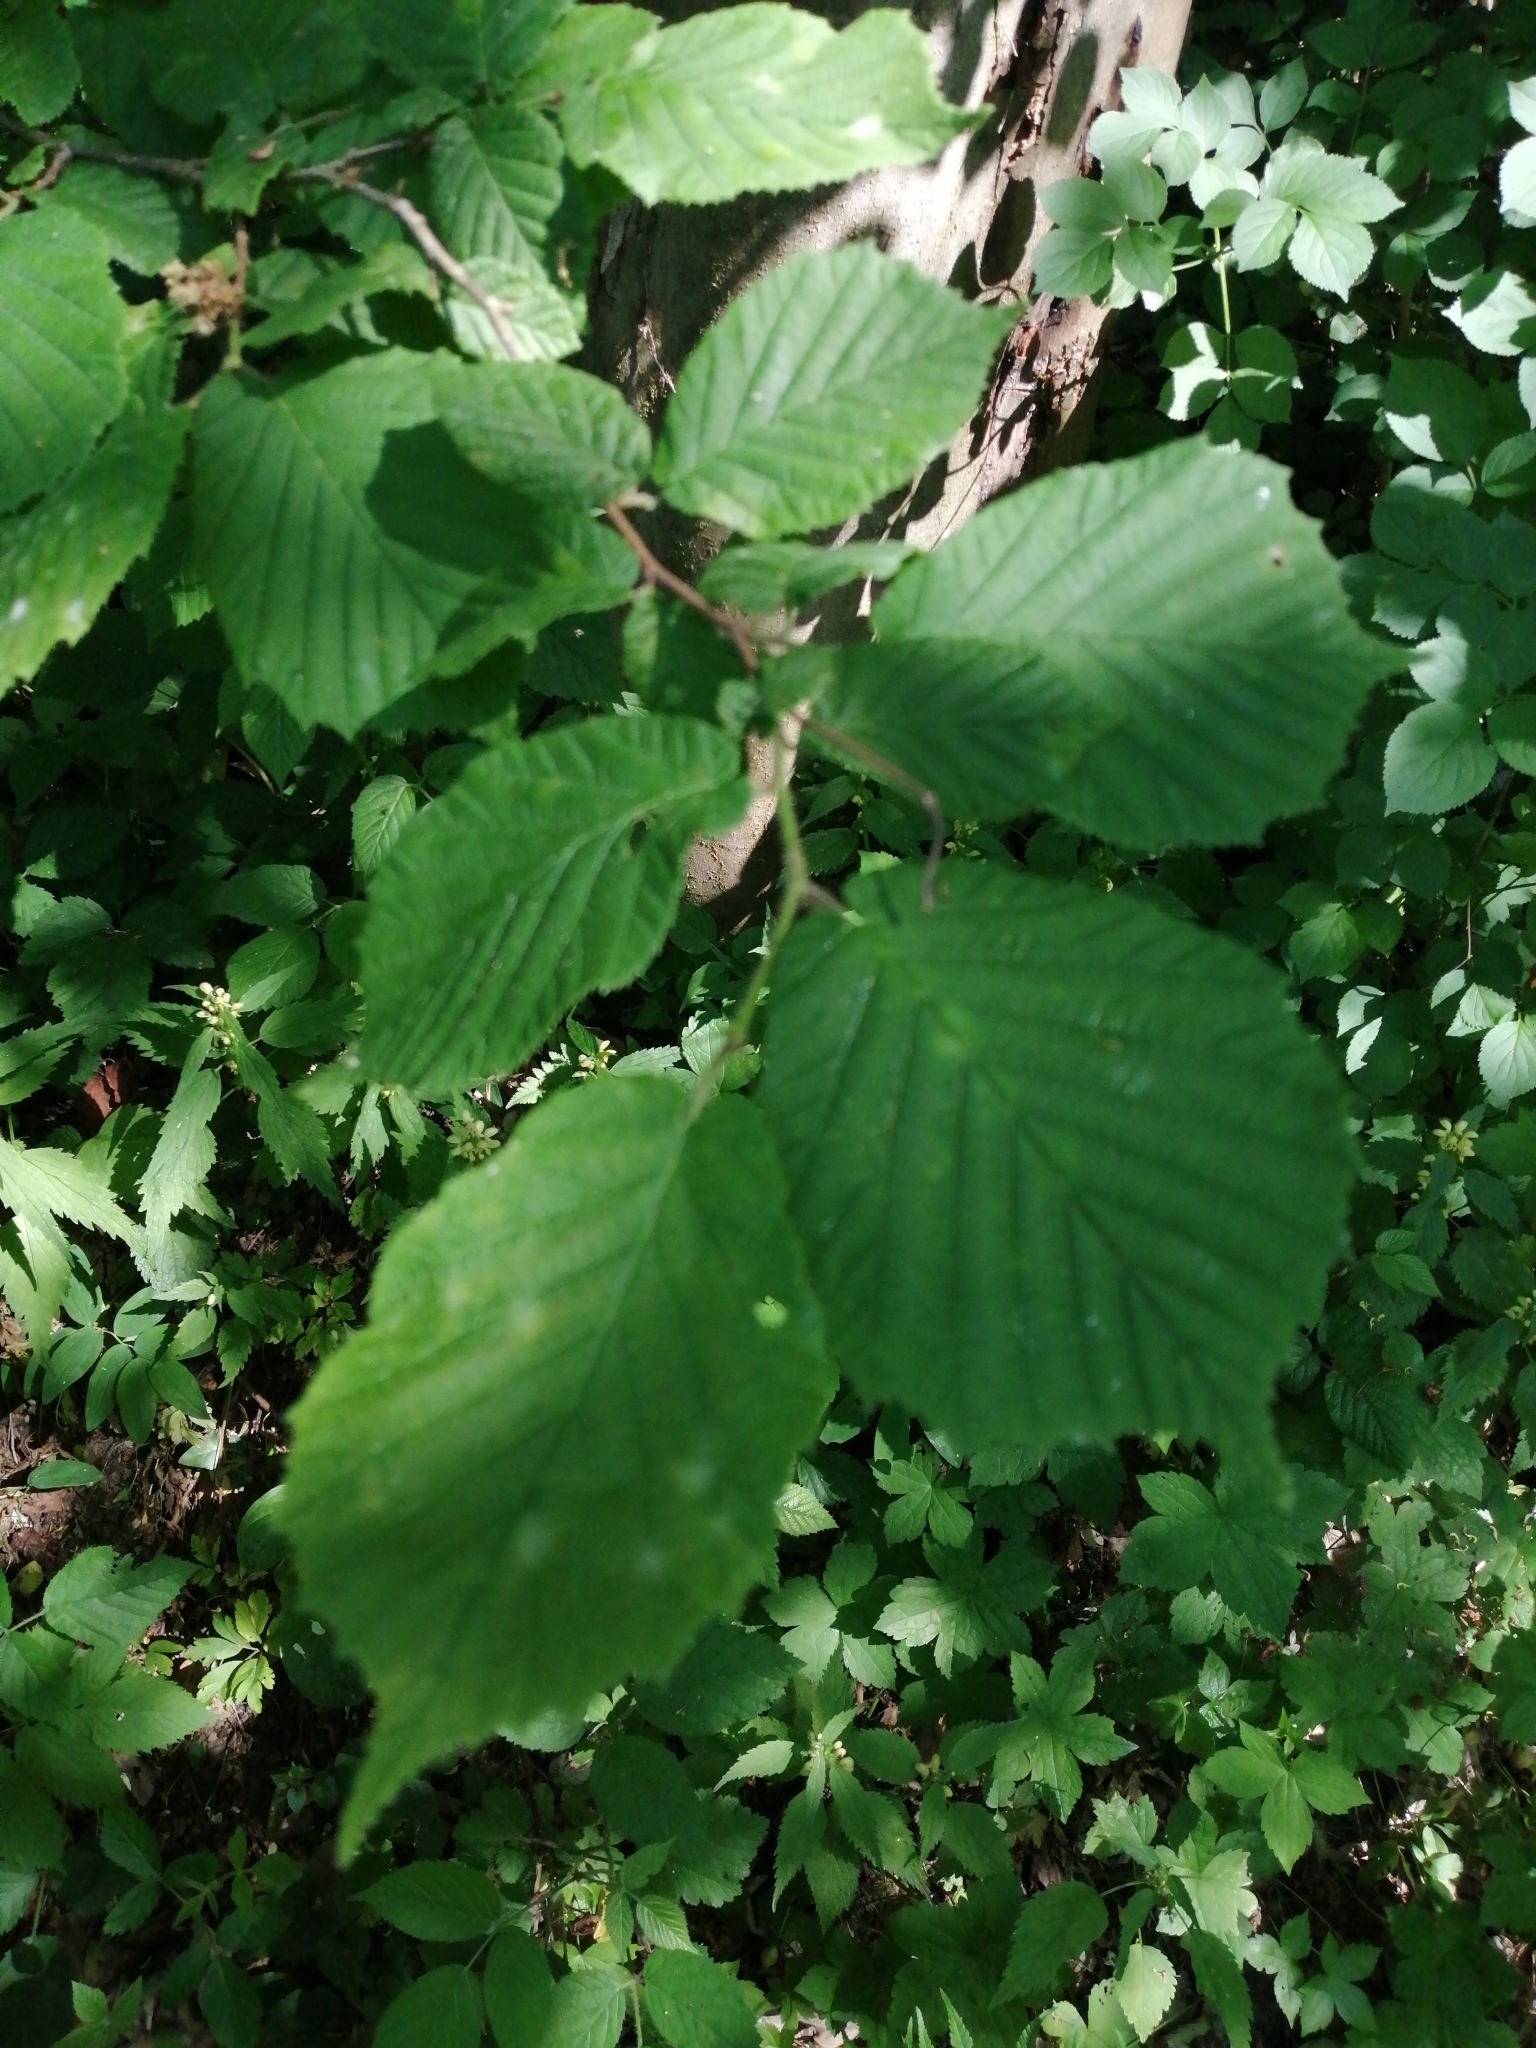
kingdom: Plantae
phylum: Tracheophyta
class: Magnoliopsida
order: Fagales
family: Betulaceae
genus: Corylus
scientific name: Corylus avellana
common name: European hazel
